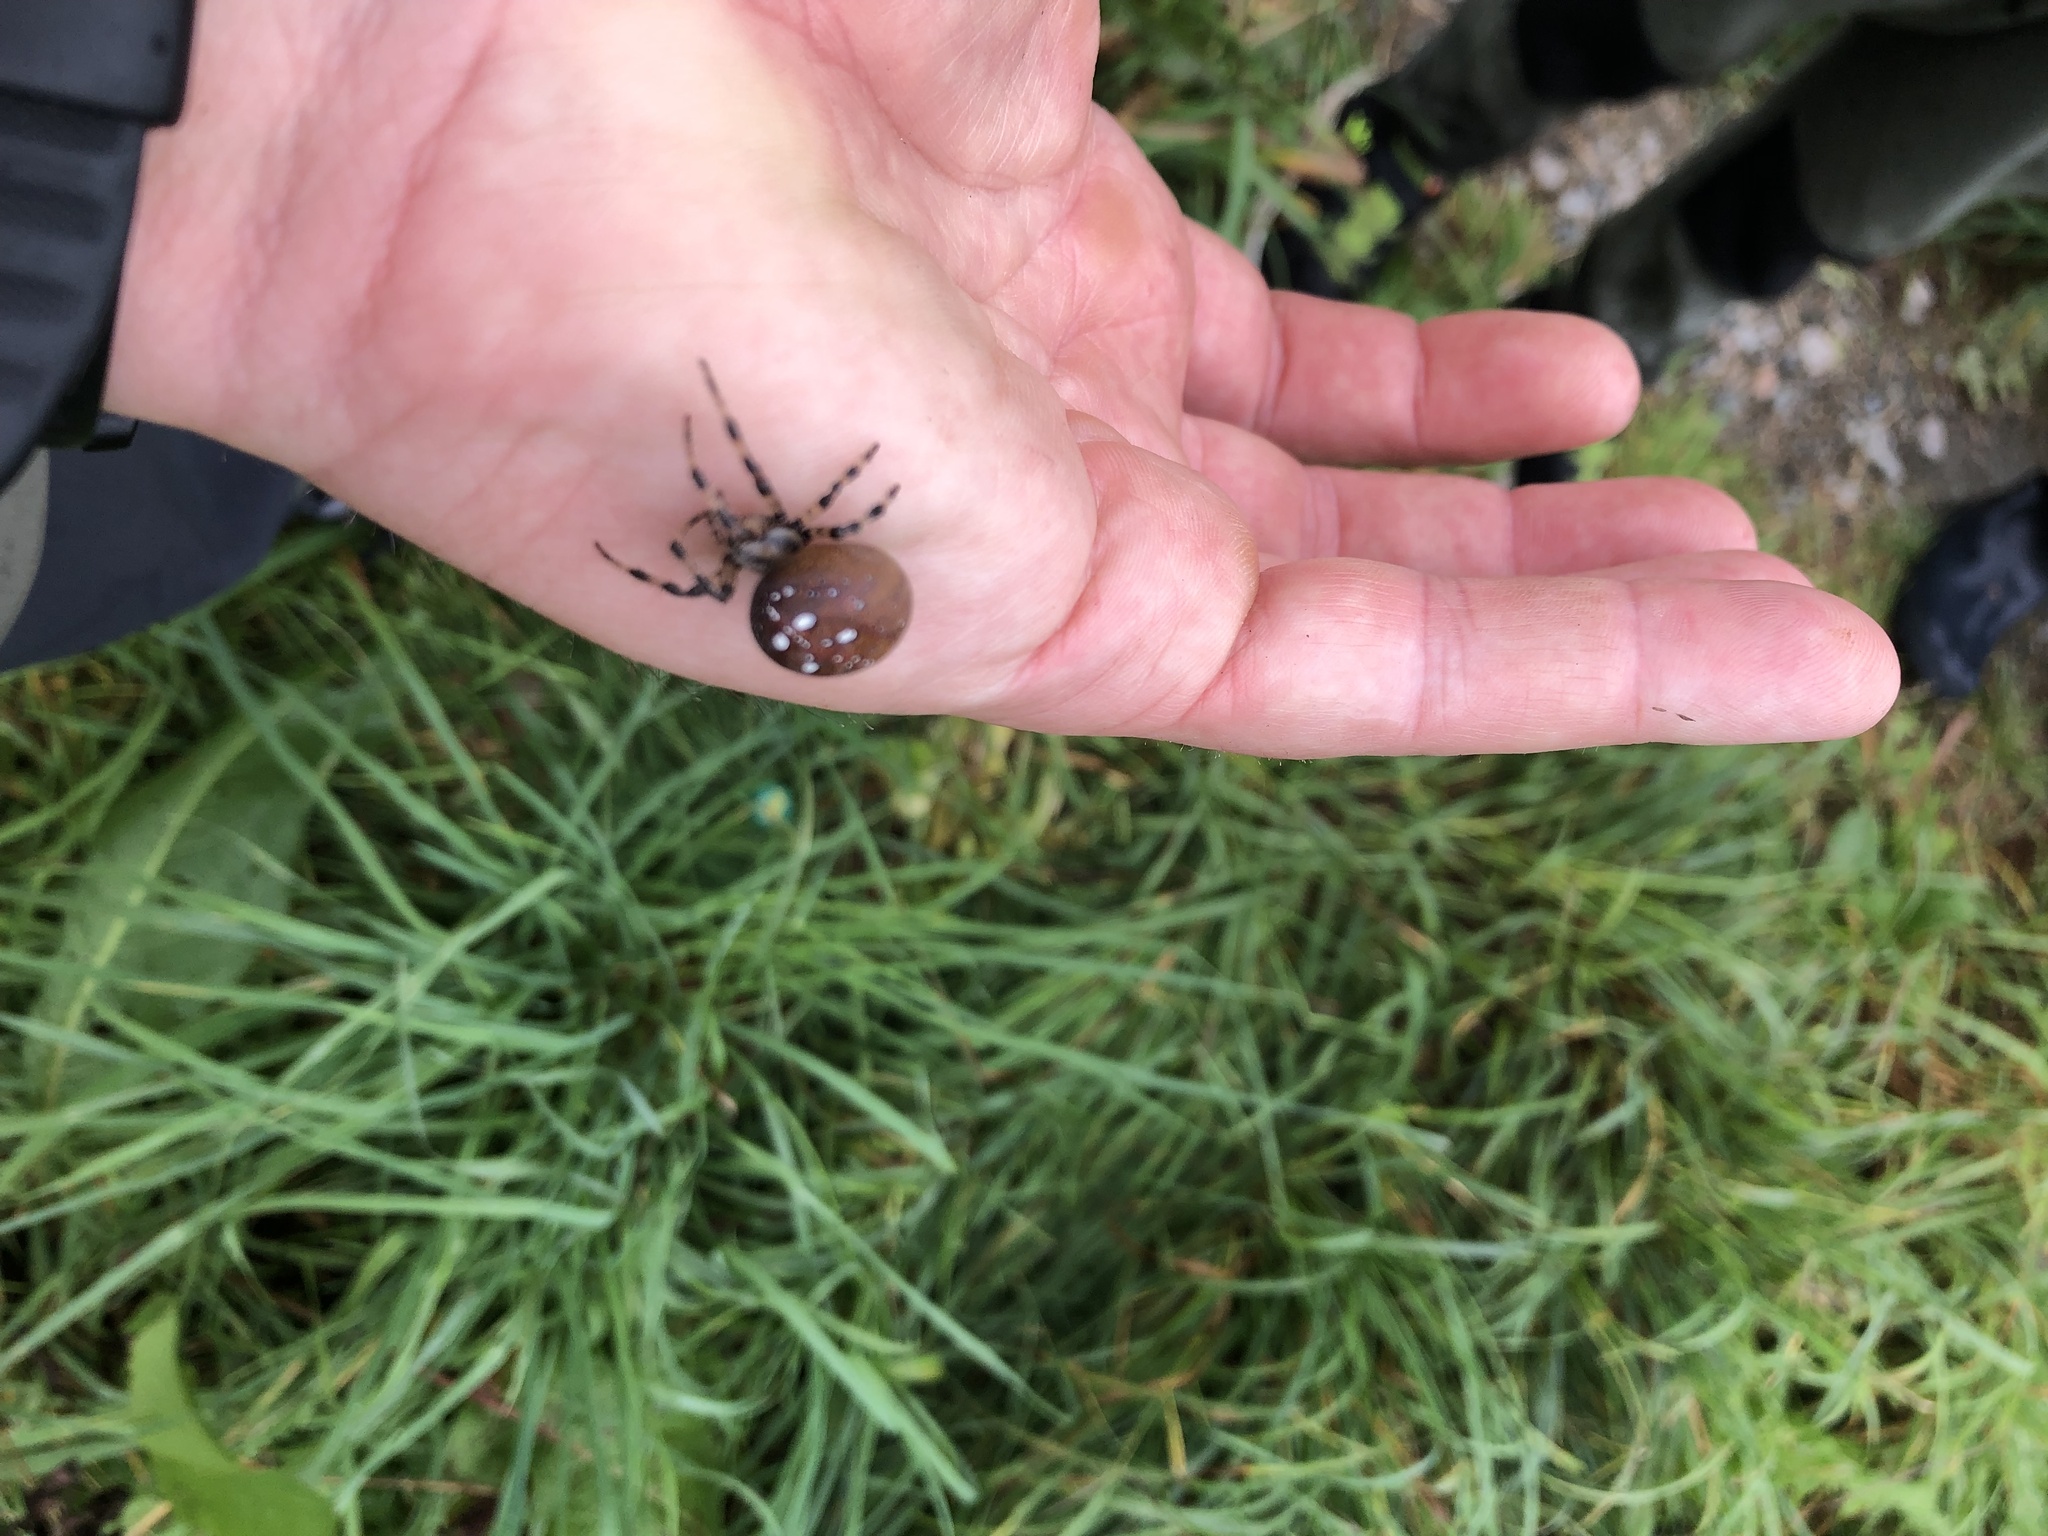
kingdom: Animalia
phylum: Arthropoda
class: Arachnida
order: Araneae
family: Araneidae
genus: Araneus
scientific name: Araneus quadratus
